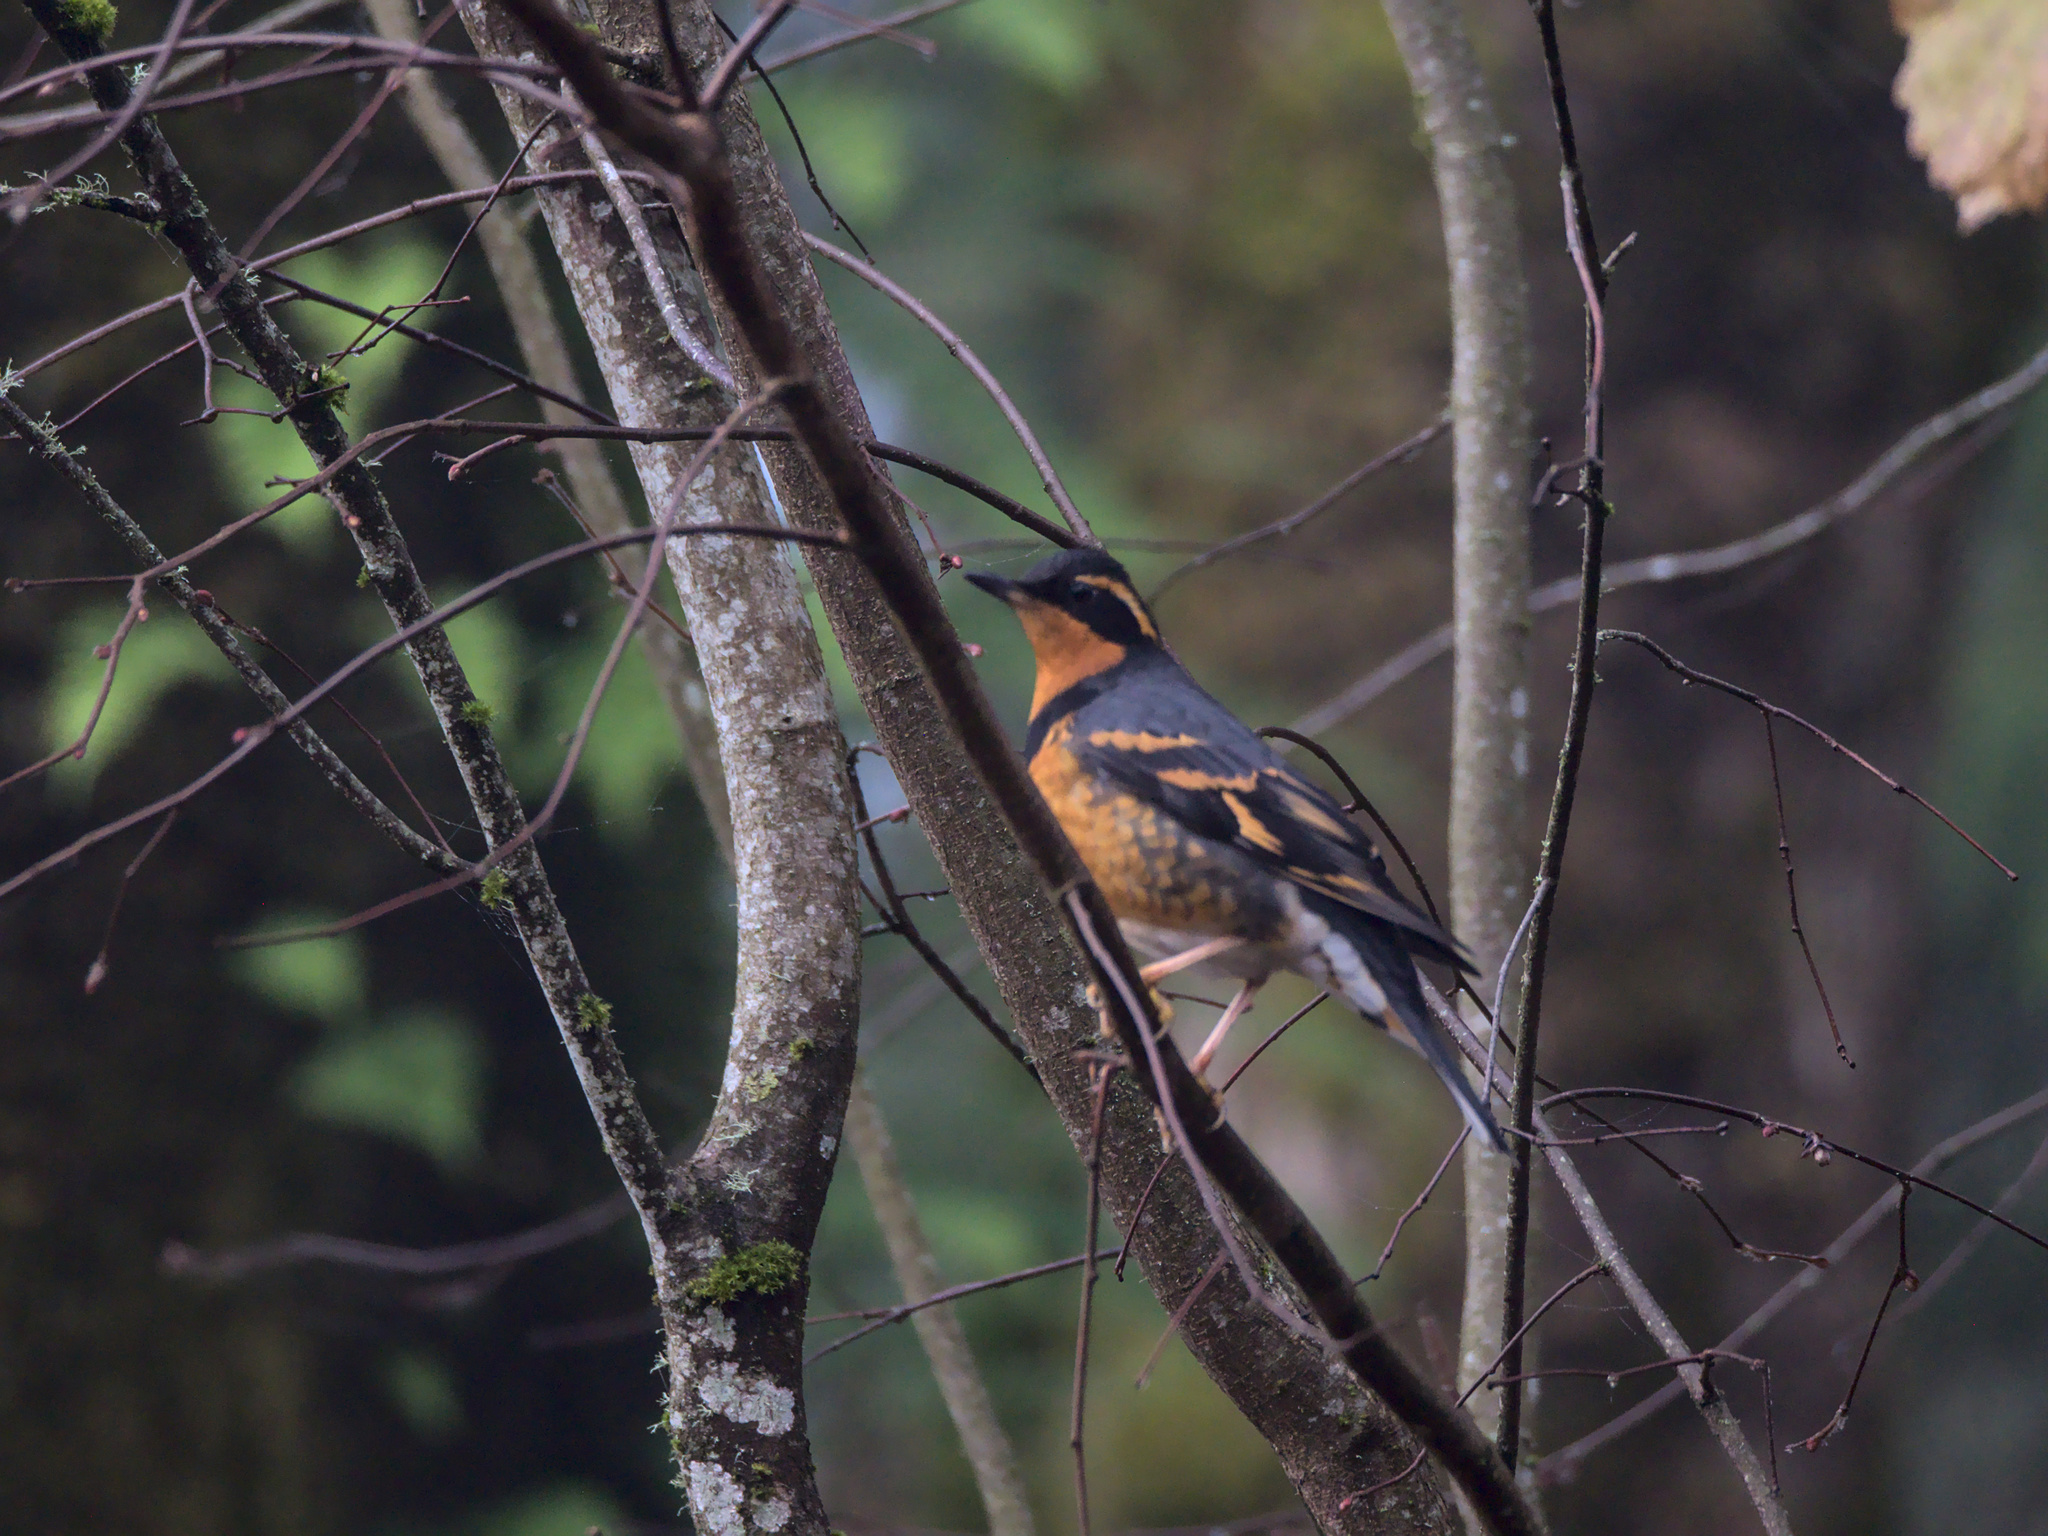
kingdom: Animalia
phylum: Chordata
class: Aves
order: Passeriformes
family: Turdidae
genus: Ixoreus
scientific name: Ixoreus naevius
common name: Varied thrush
